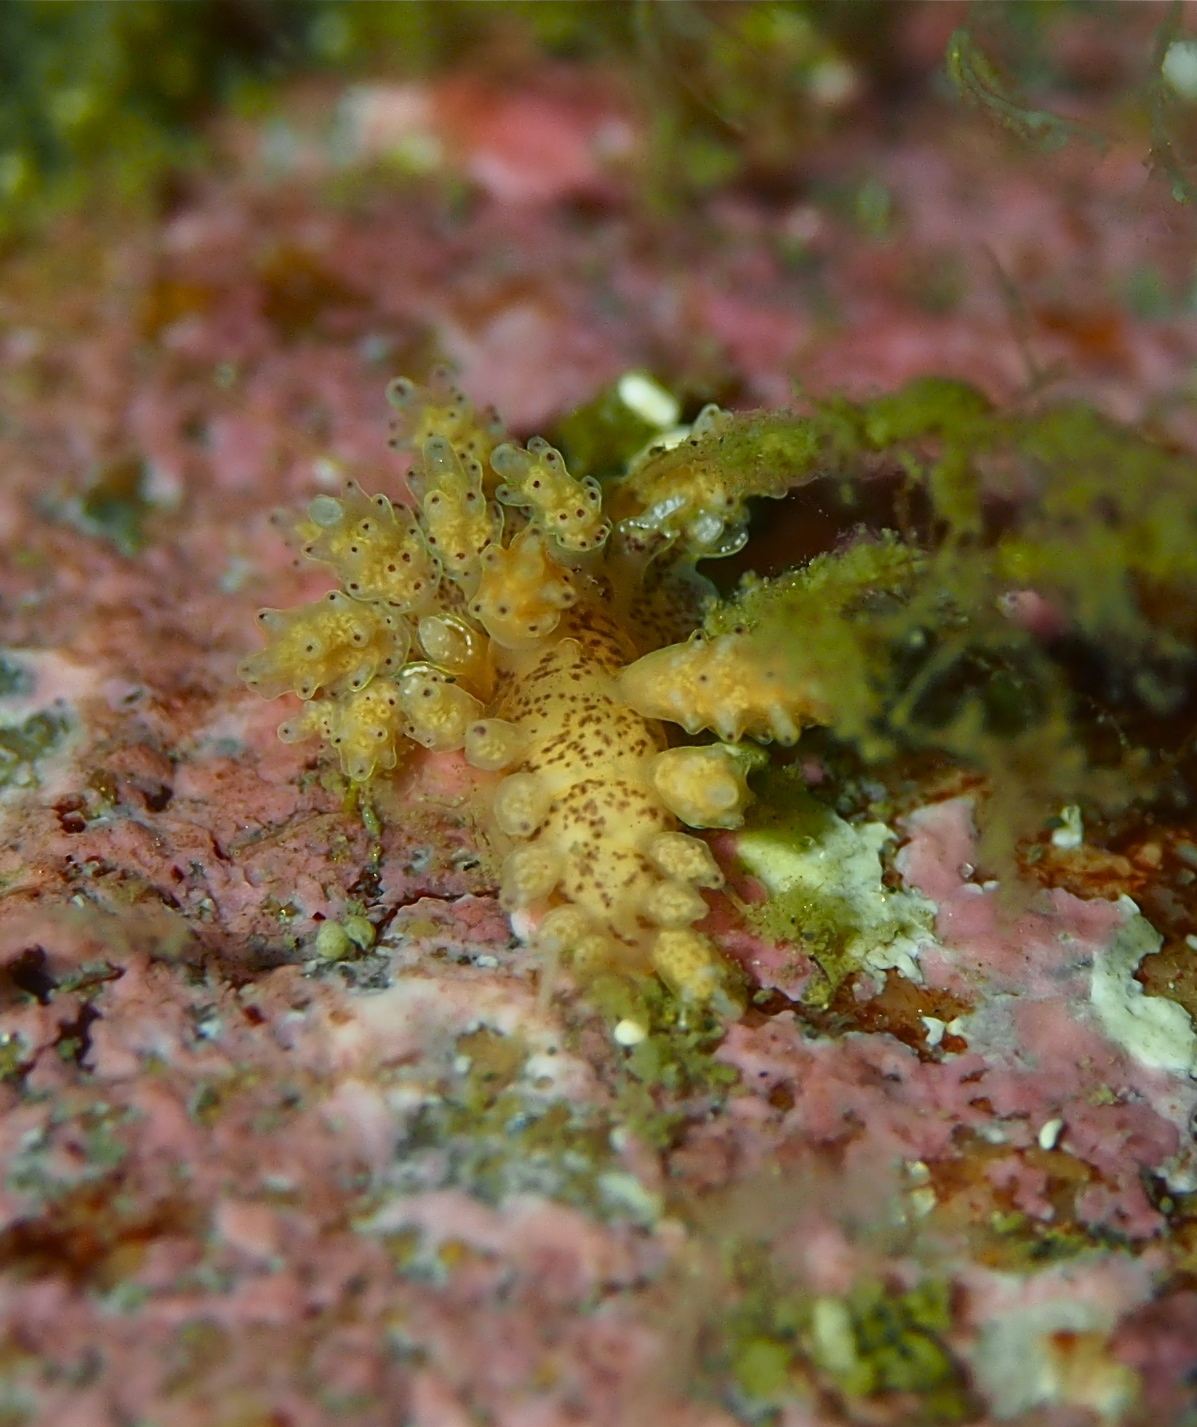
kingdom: Animalia
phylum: Mollusca
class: Gastropoda
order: Nudibranchia
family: Dotidae
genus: Doto
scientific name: Doto dunnei
